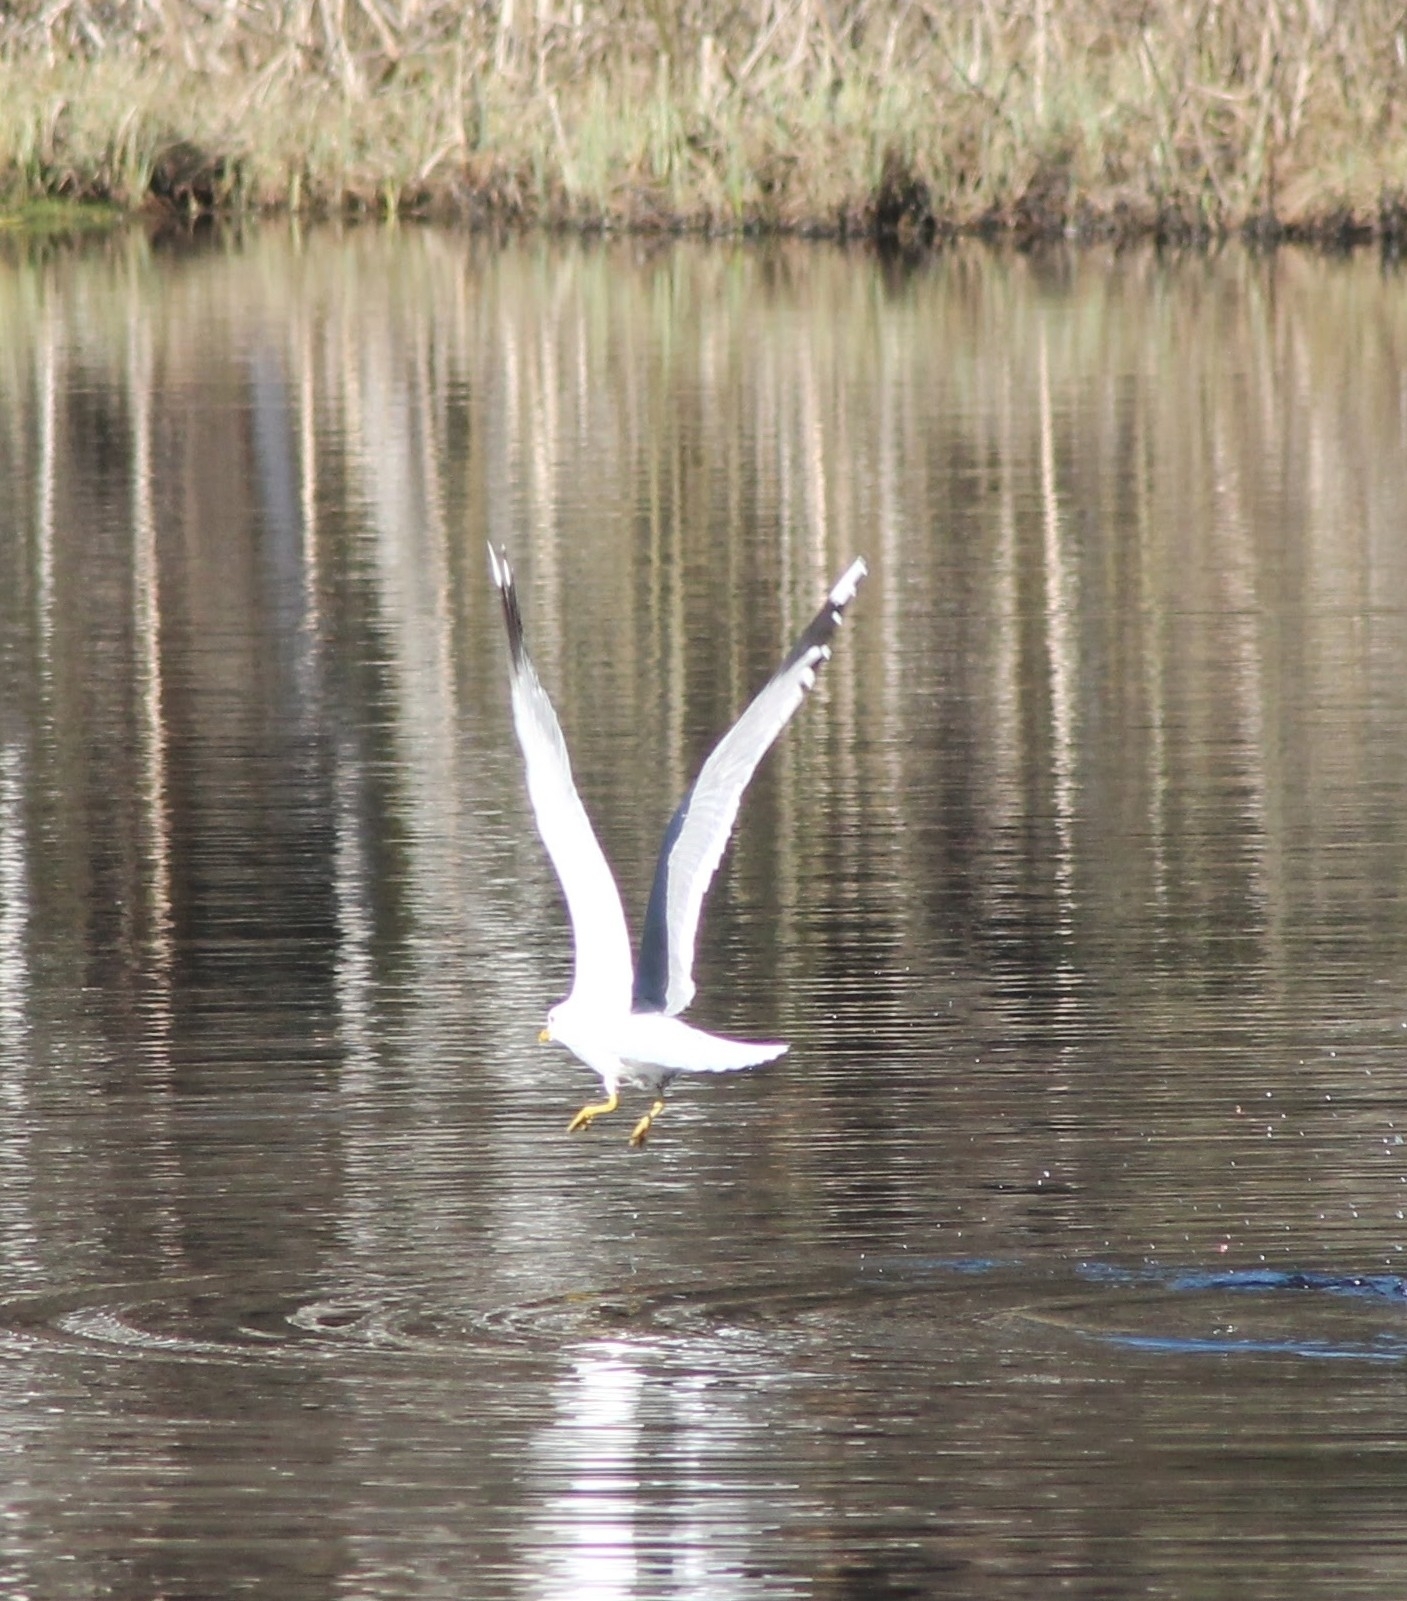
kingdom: Animalia
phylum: Chordata
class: Aves
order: Charadriiformes
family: Laridae
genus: Larus
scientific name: Larus canus
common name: Mew gull
